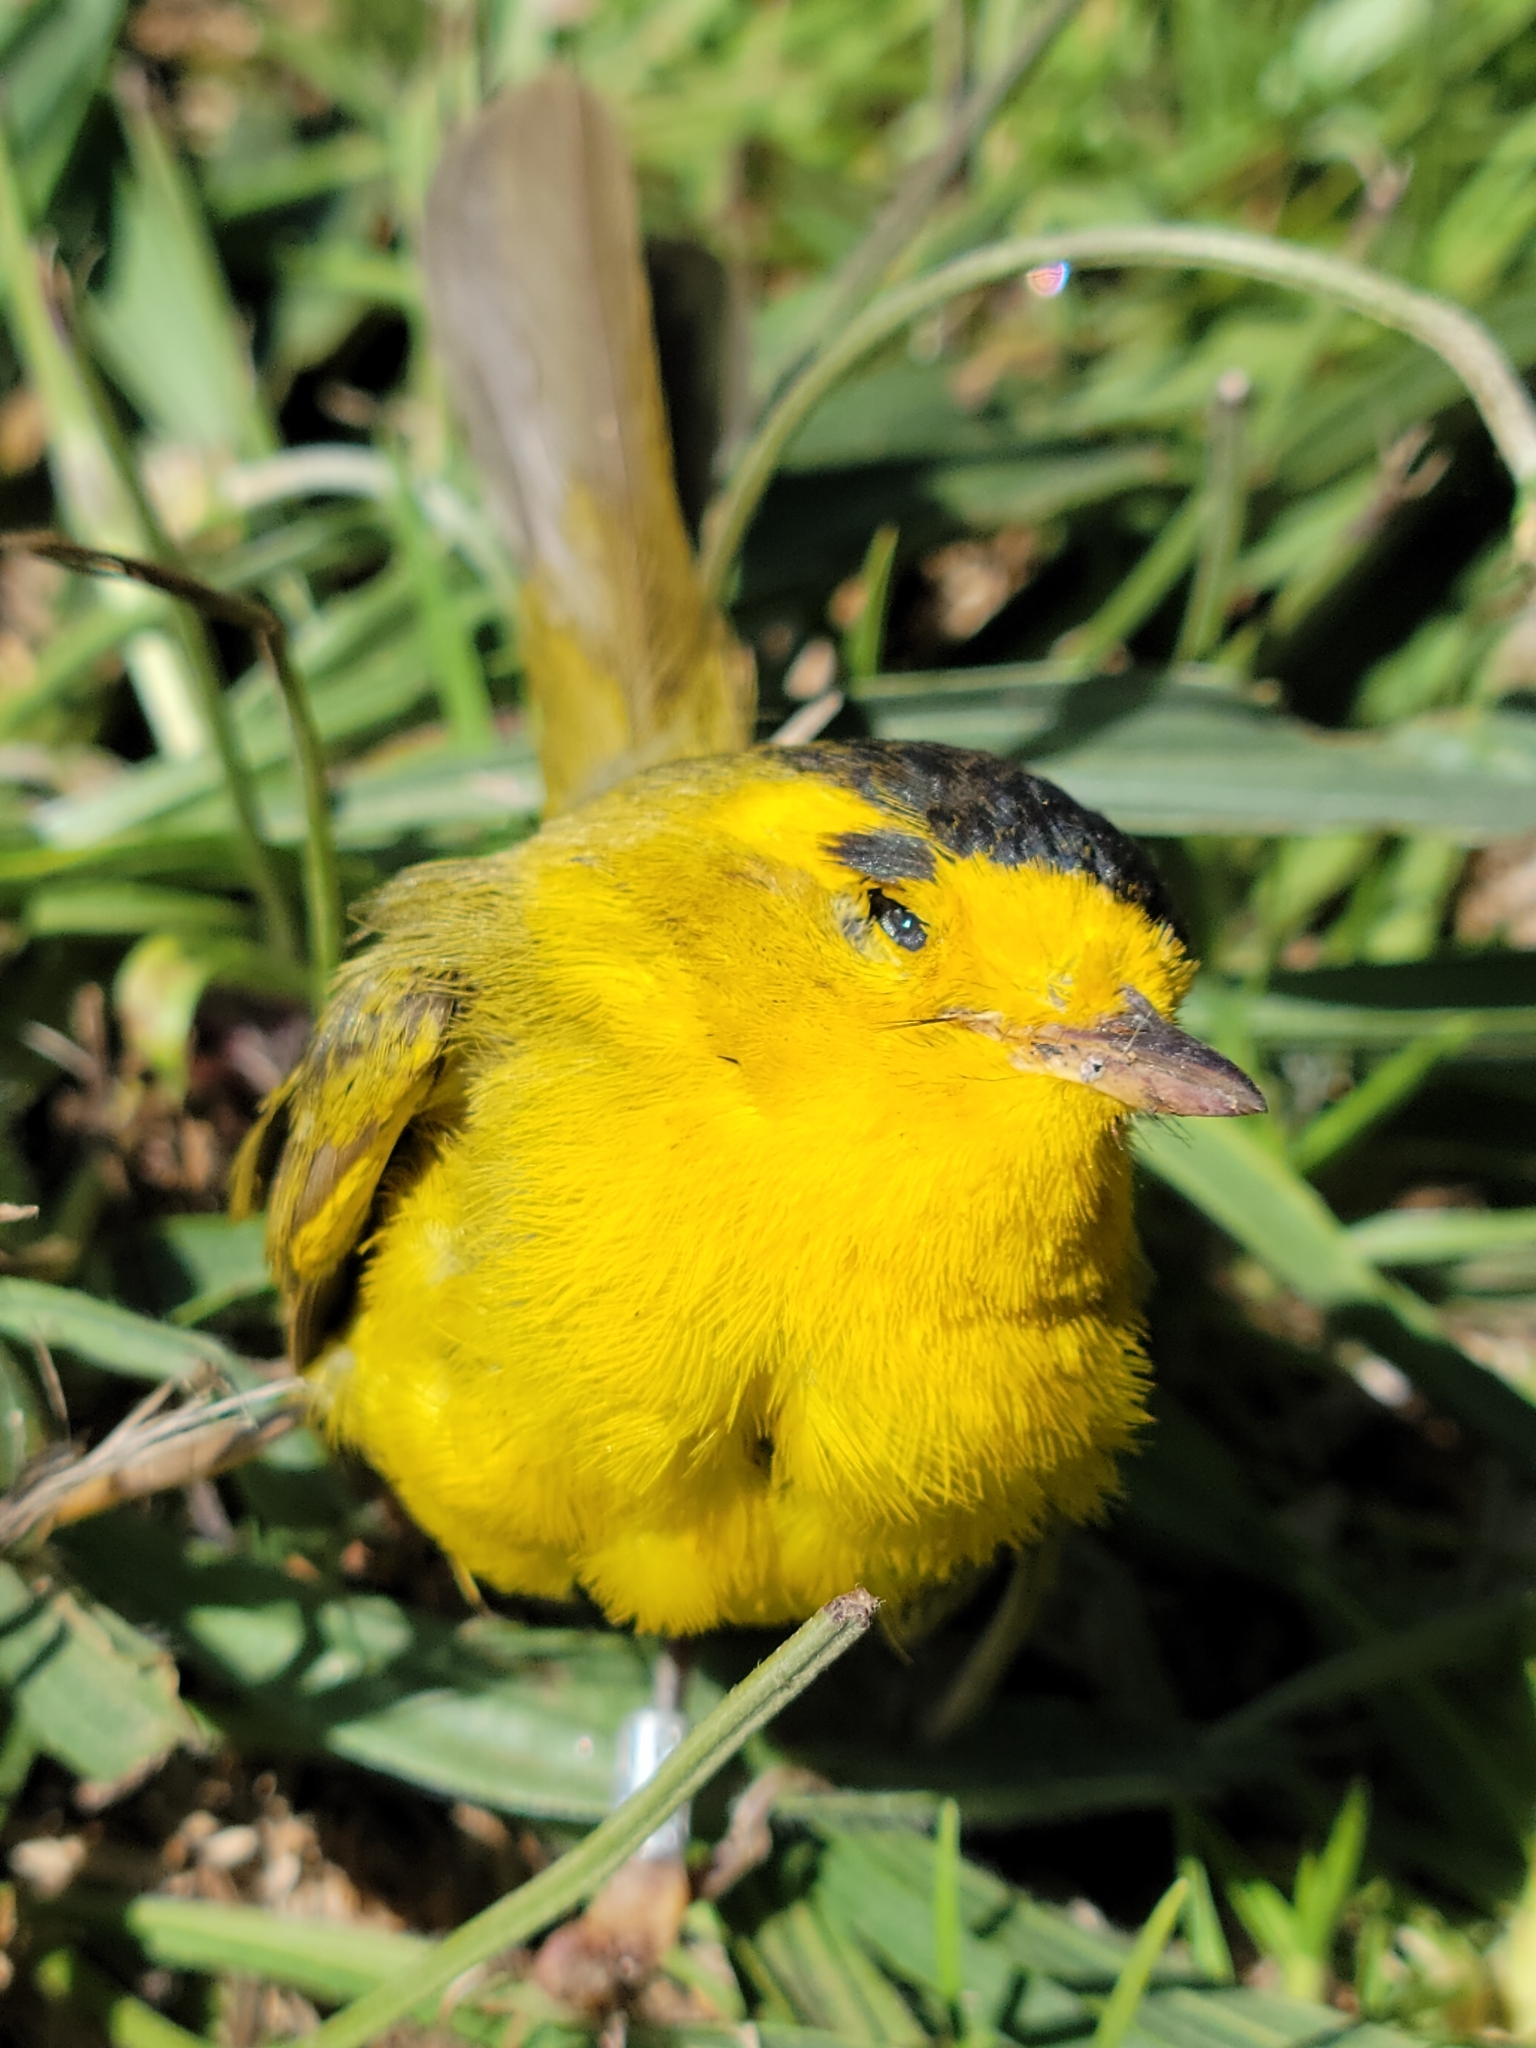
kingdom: Animalia
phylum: Chordata
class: Aves
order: Passeriformes
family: Parulidae
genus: Cardellina
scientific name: Cardellina pusilla
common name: Wilson's warbler
